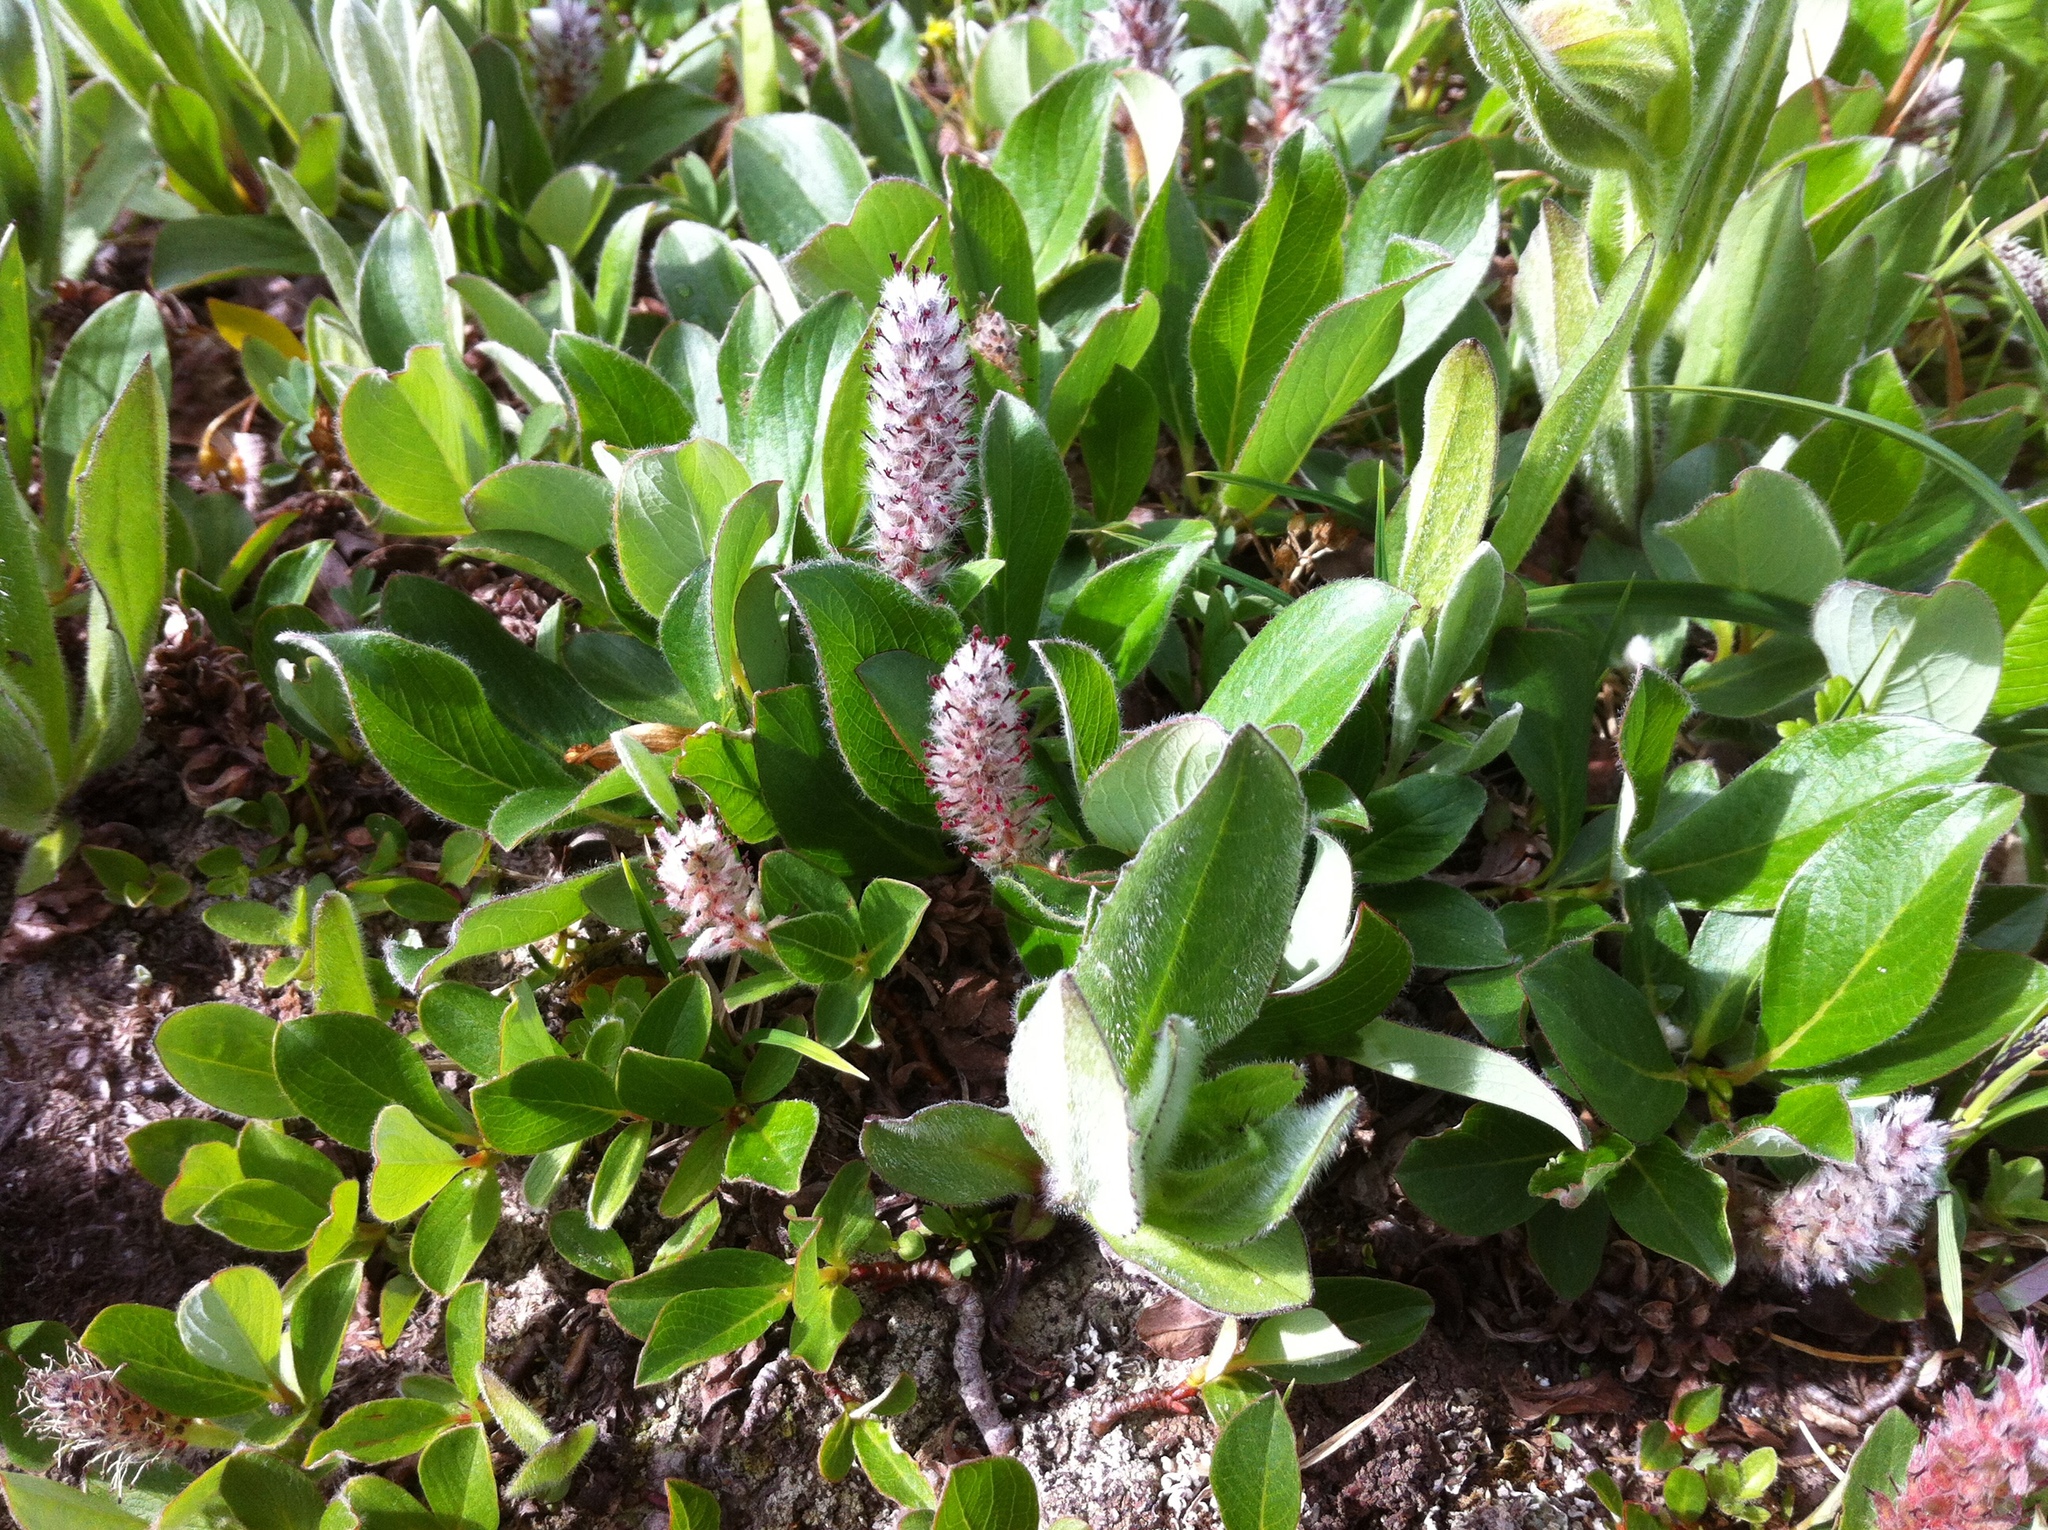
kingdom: Plantae
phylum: Tracheophyta
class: Magnoliopsida
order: Malpighiales
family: Salicaceae
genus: Salix
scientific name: Salix arctica
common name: Arctic willow
